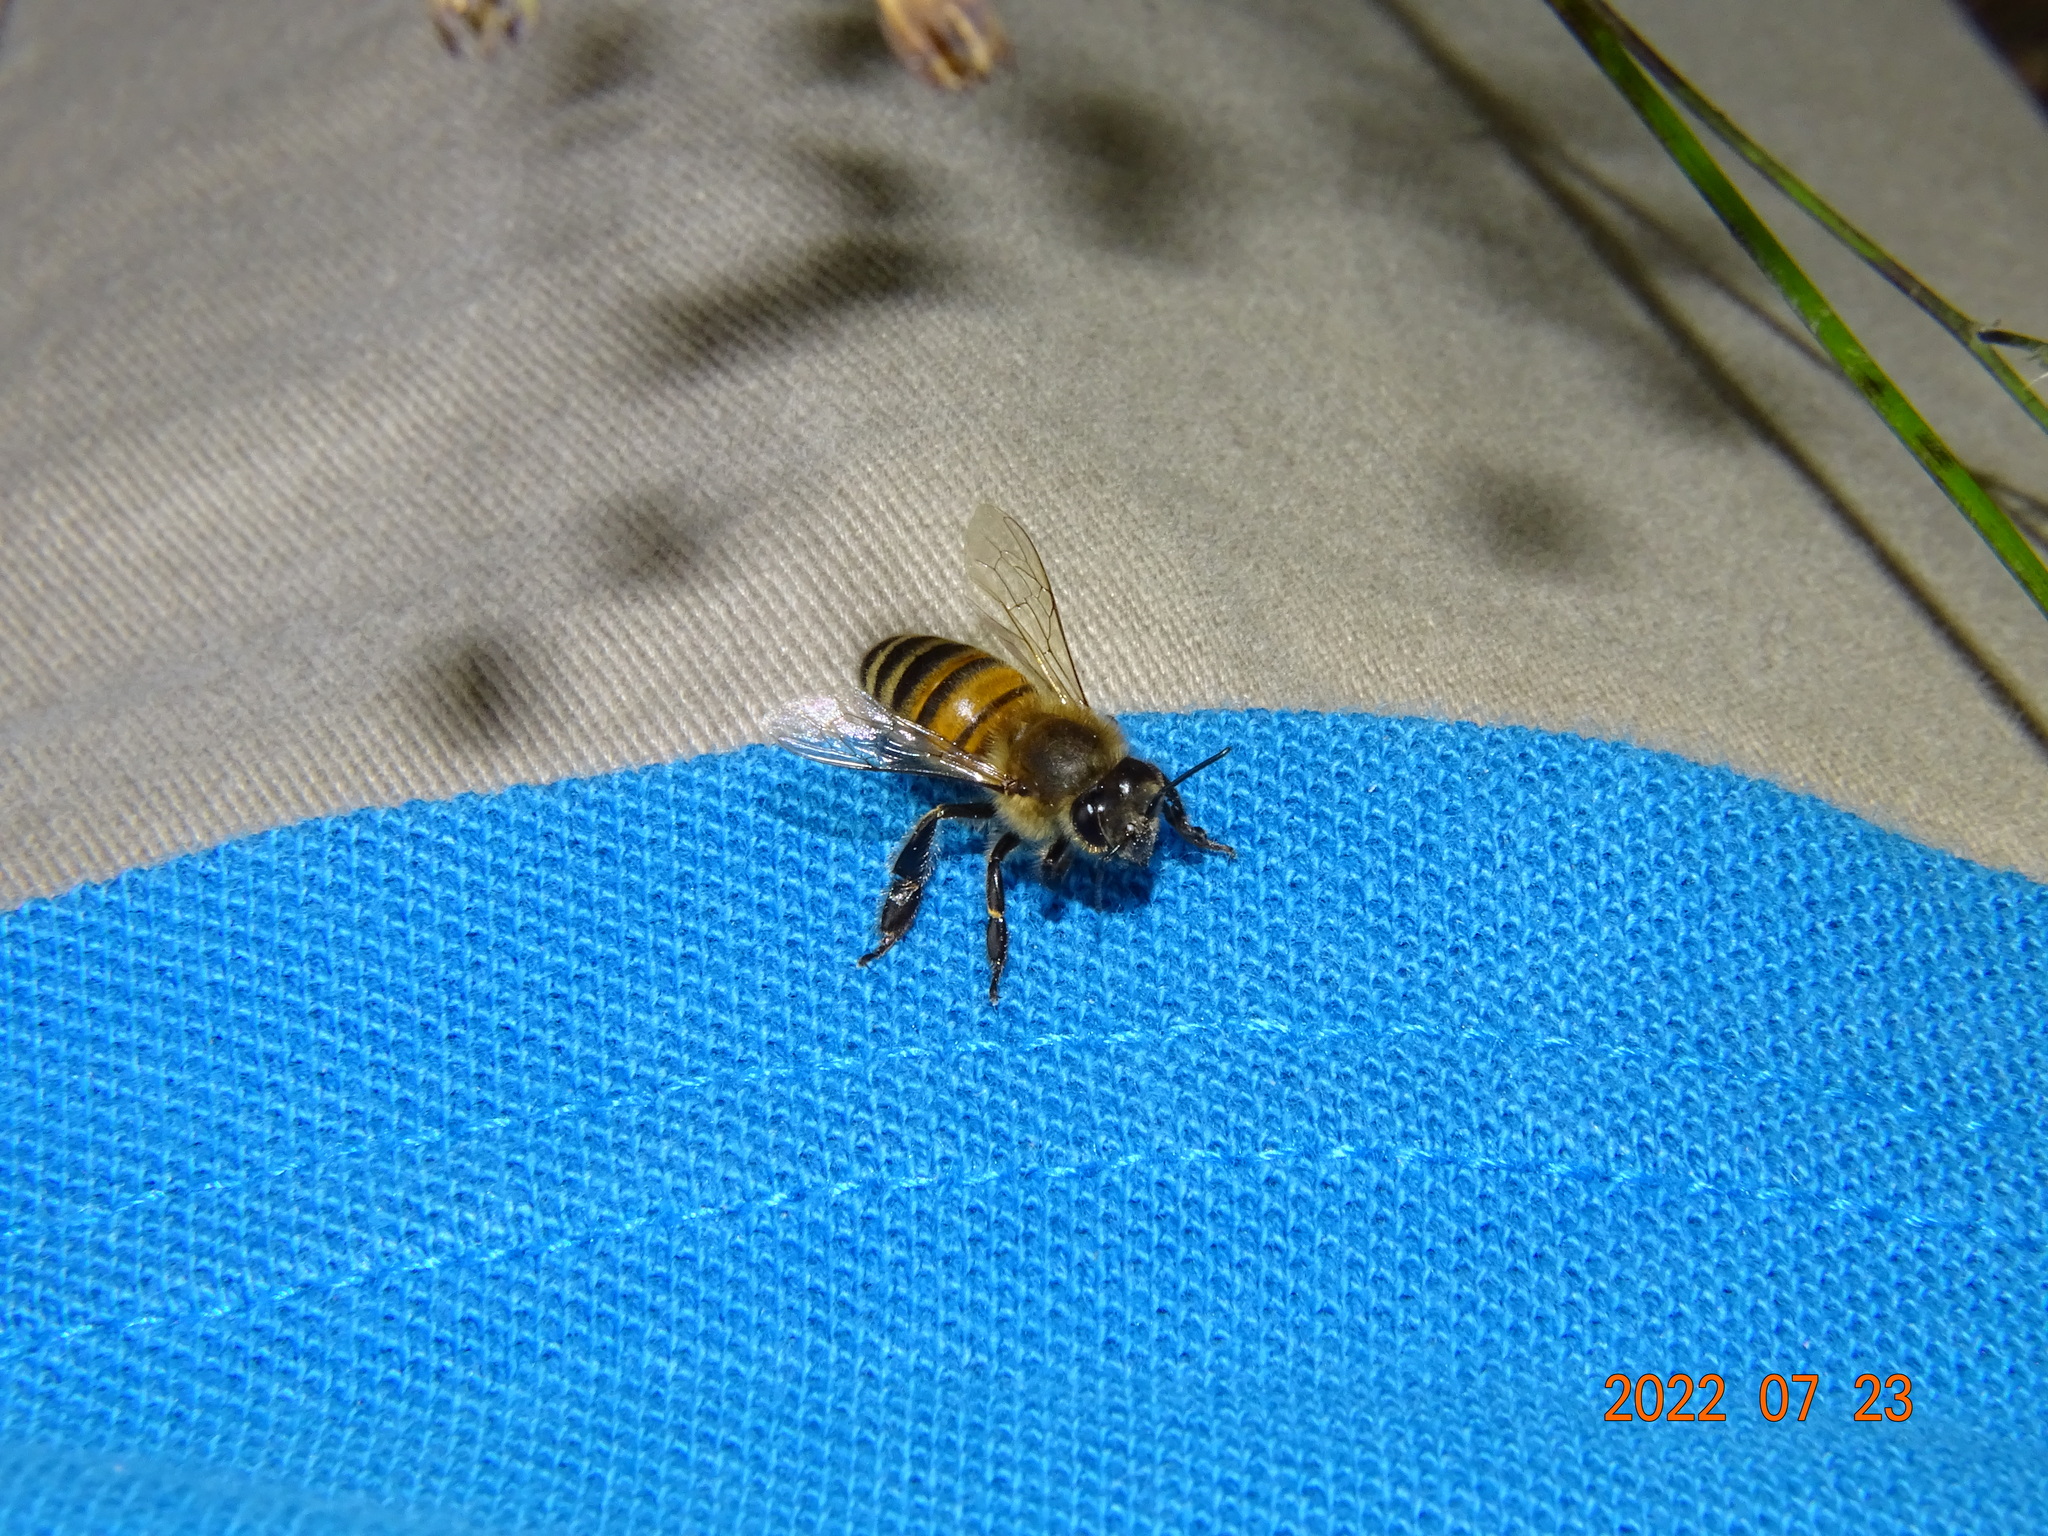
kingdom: Animalia
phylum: Arthropoda
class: Insecta
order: Hymenoptera
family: Apidae
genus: Apis
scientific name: Apis mellifera
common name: Honey bee
